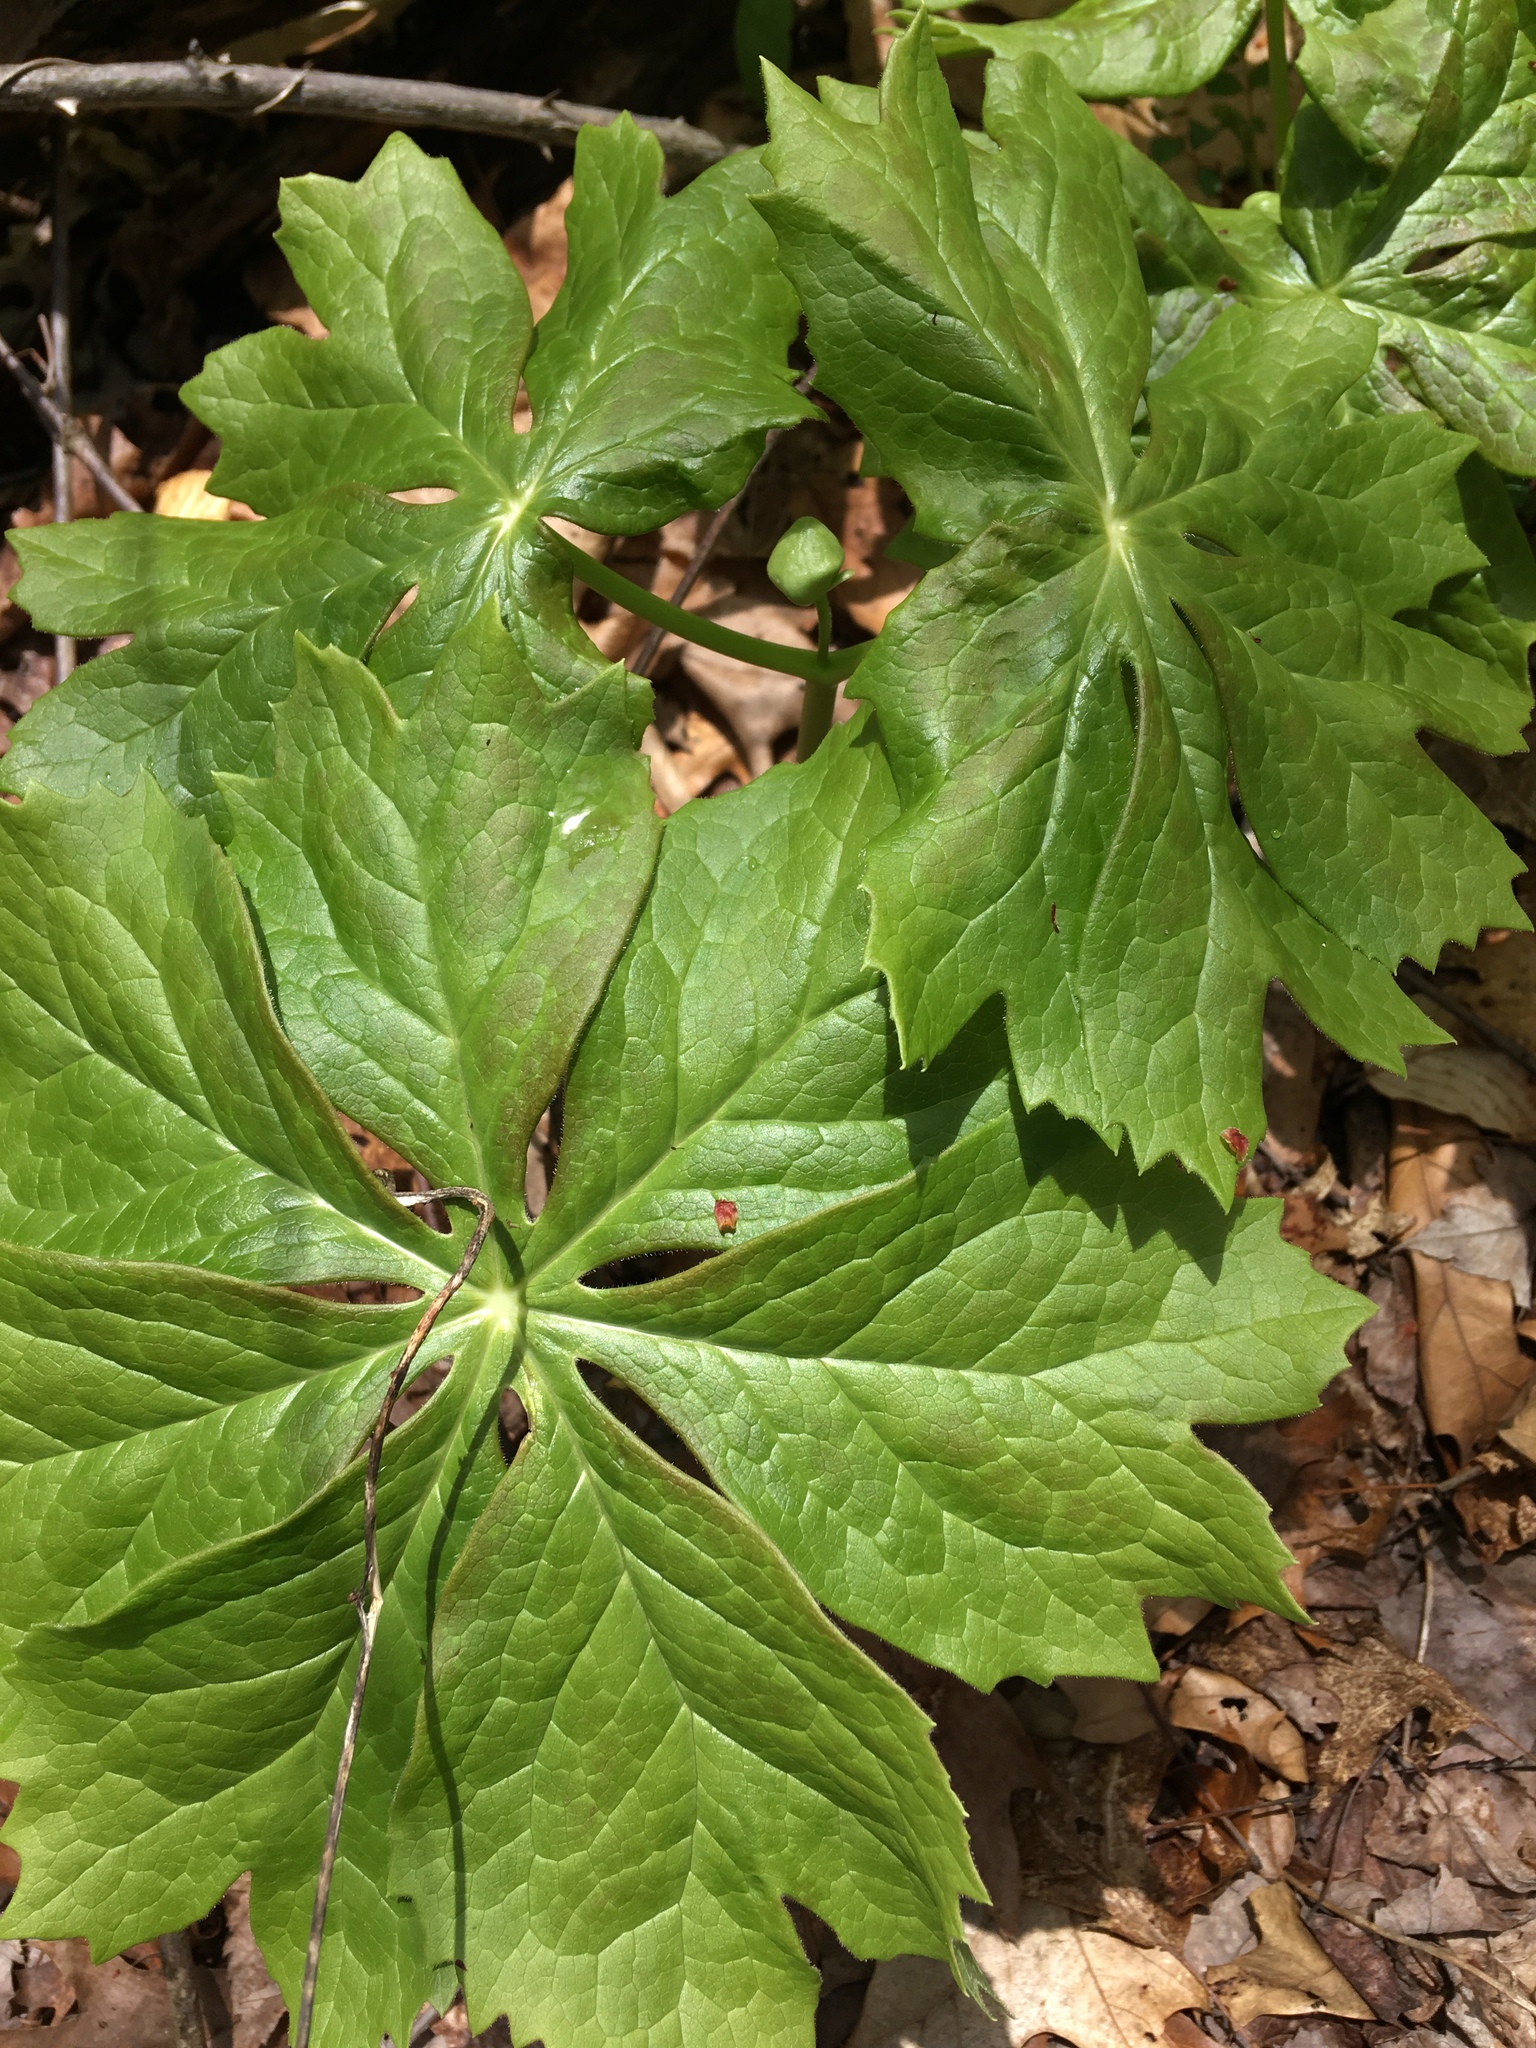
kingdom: Plantae
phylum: Tracheophyta
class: Magnoliopsida
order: Ranunculales
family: Berberidaceae
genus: Podophyllum
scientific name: Podophyllum peltatum
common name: Wild mandrake
